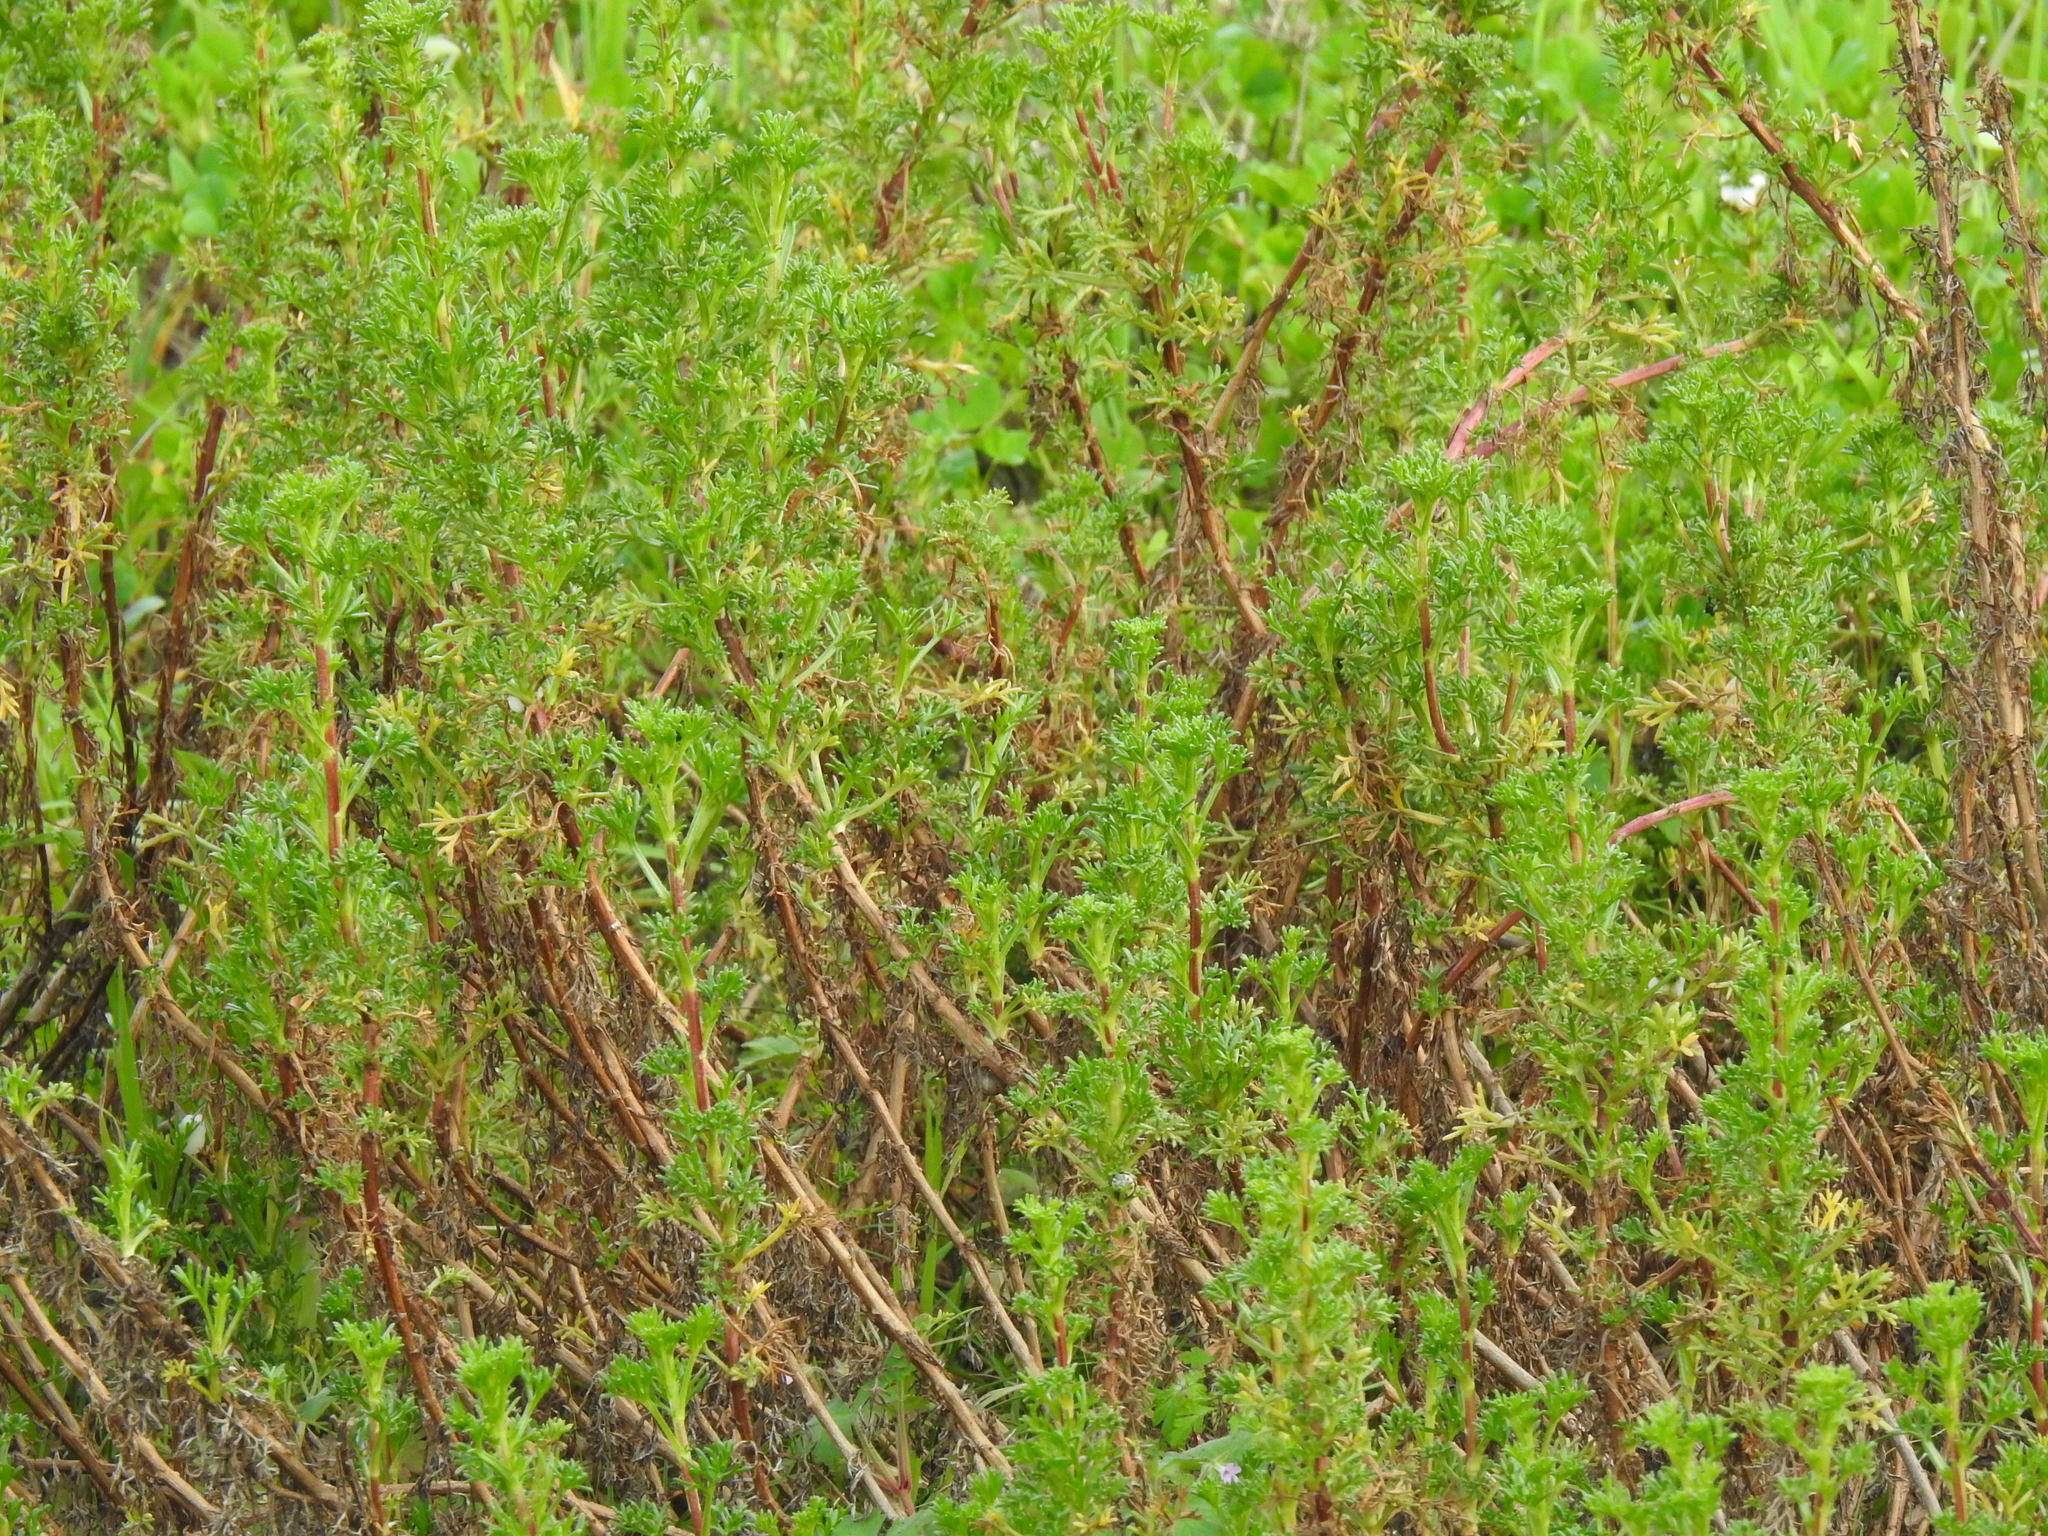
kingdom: Plantae
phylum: Tracheophyta
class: Magnoliopsida
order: Asterales
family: Asteraceae
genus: Artemisia
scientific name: Artemisia crithmifolia
